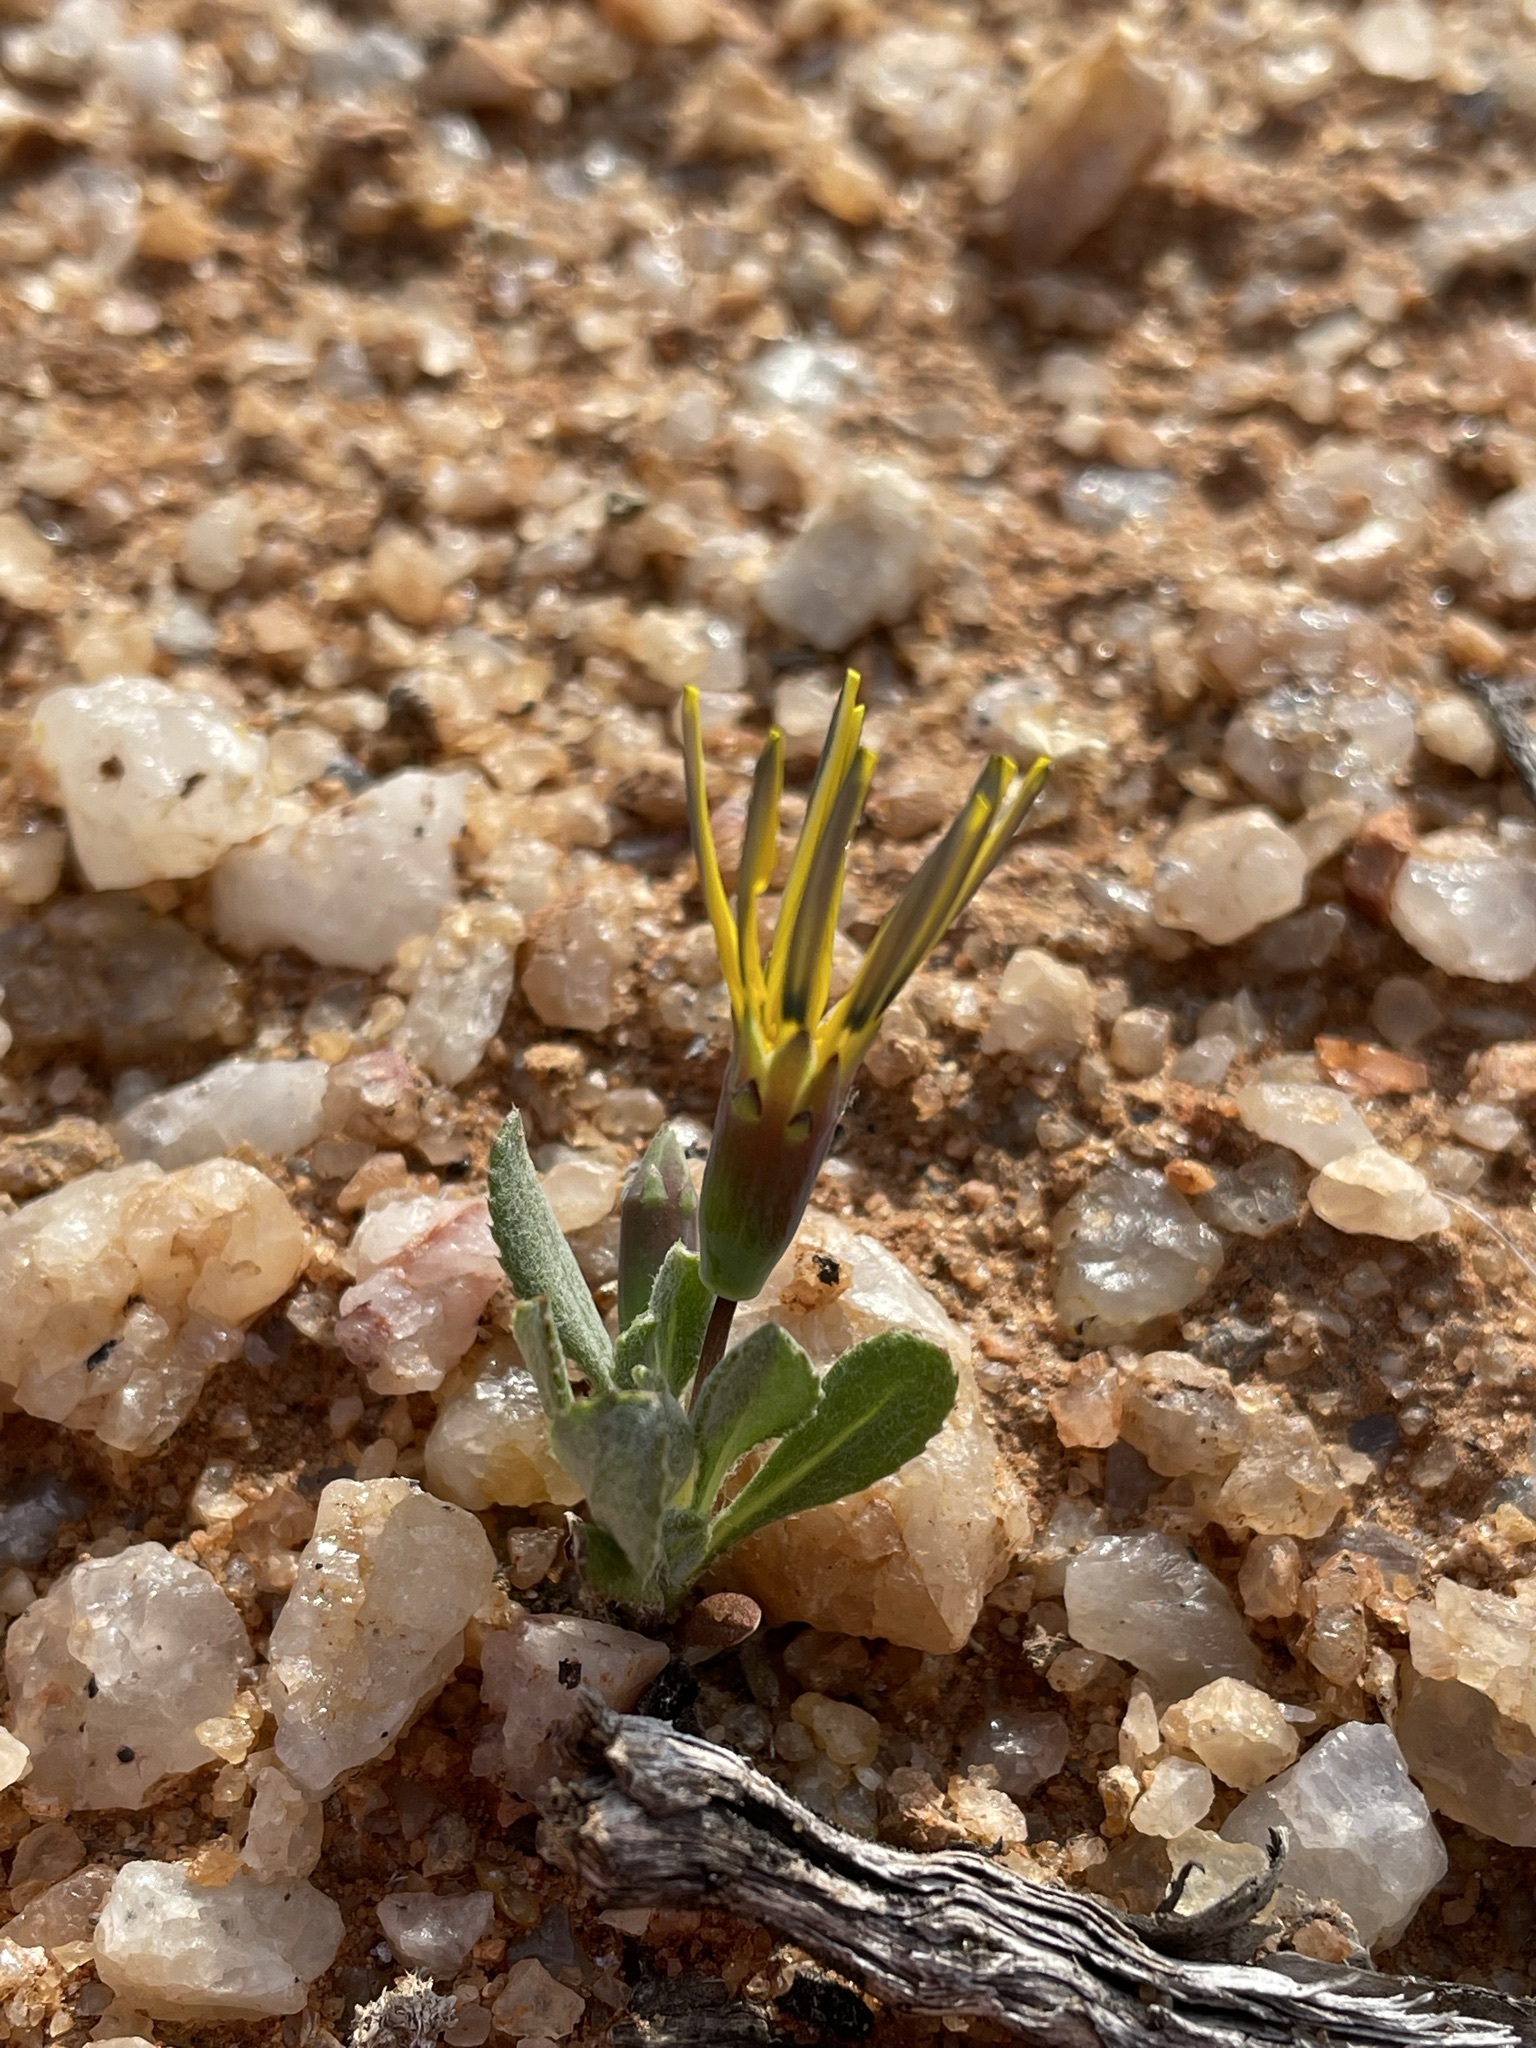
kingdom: Plantae
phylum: Tracheophyta
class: Magnoliopsida
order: Asterales
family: Asteraceae
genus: Gazania
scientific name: Gazania lichtensteinii
